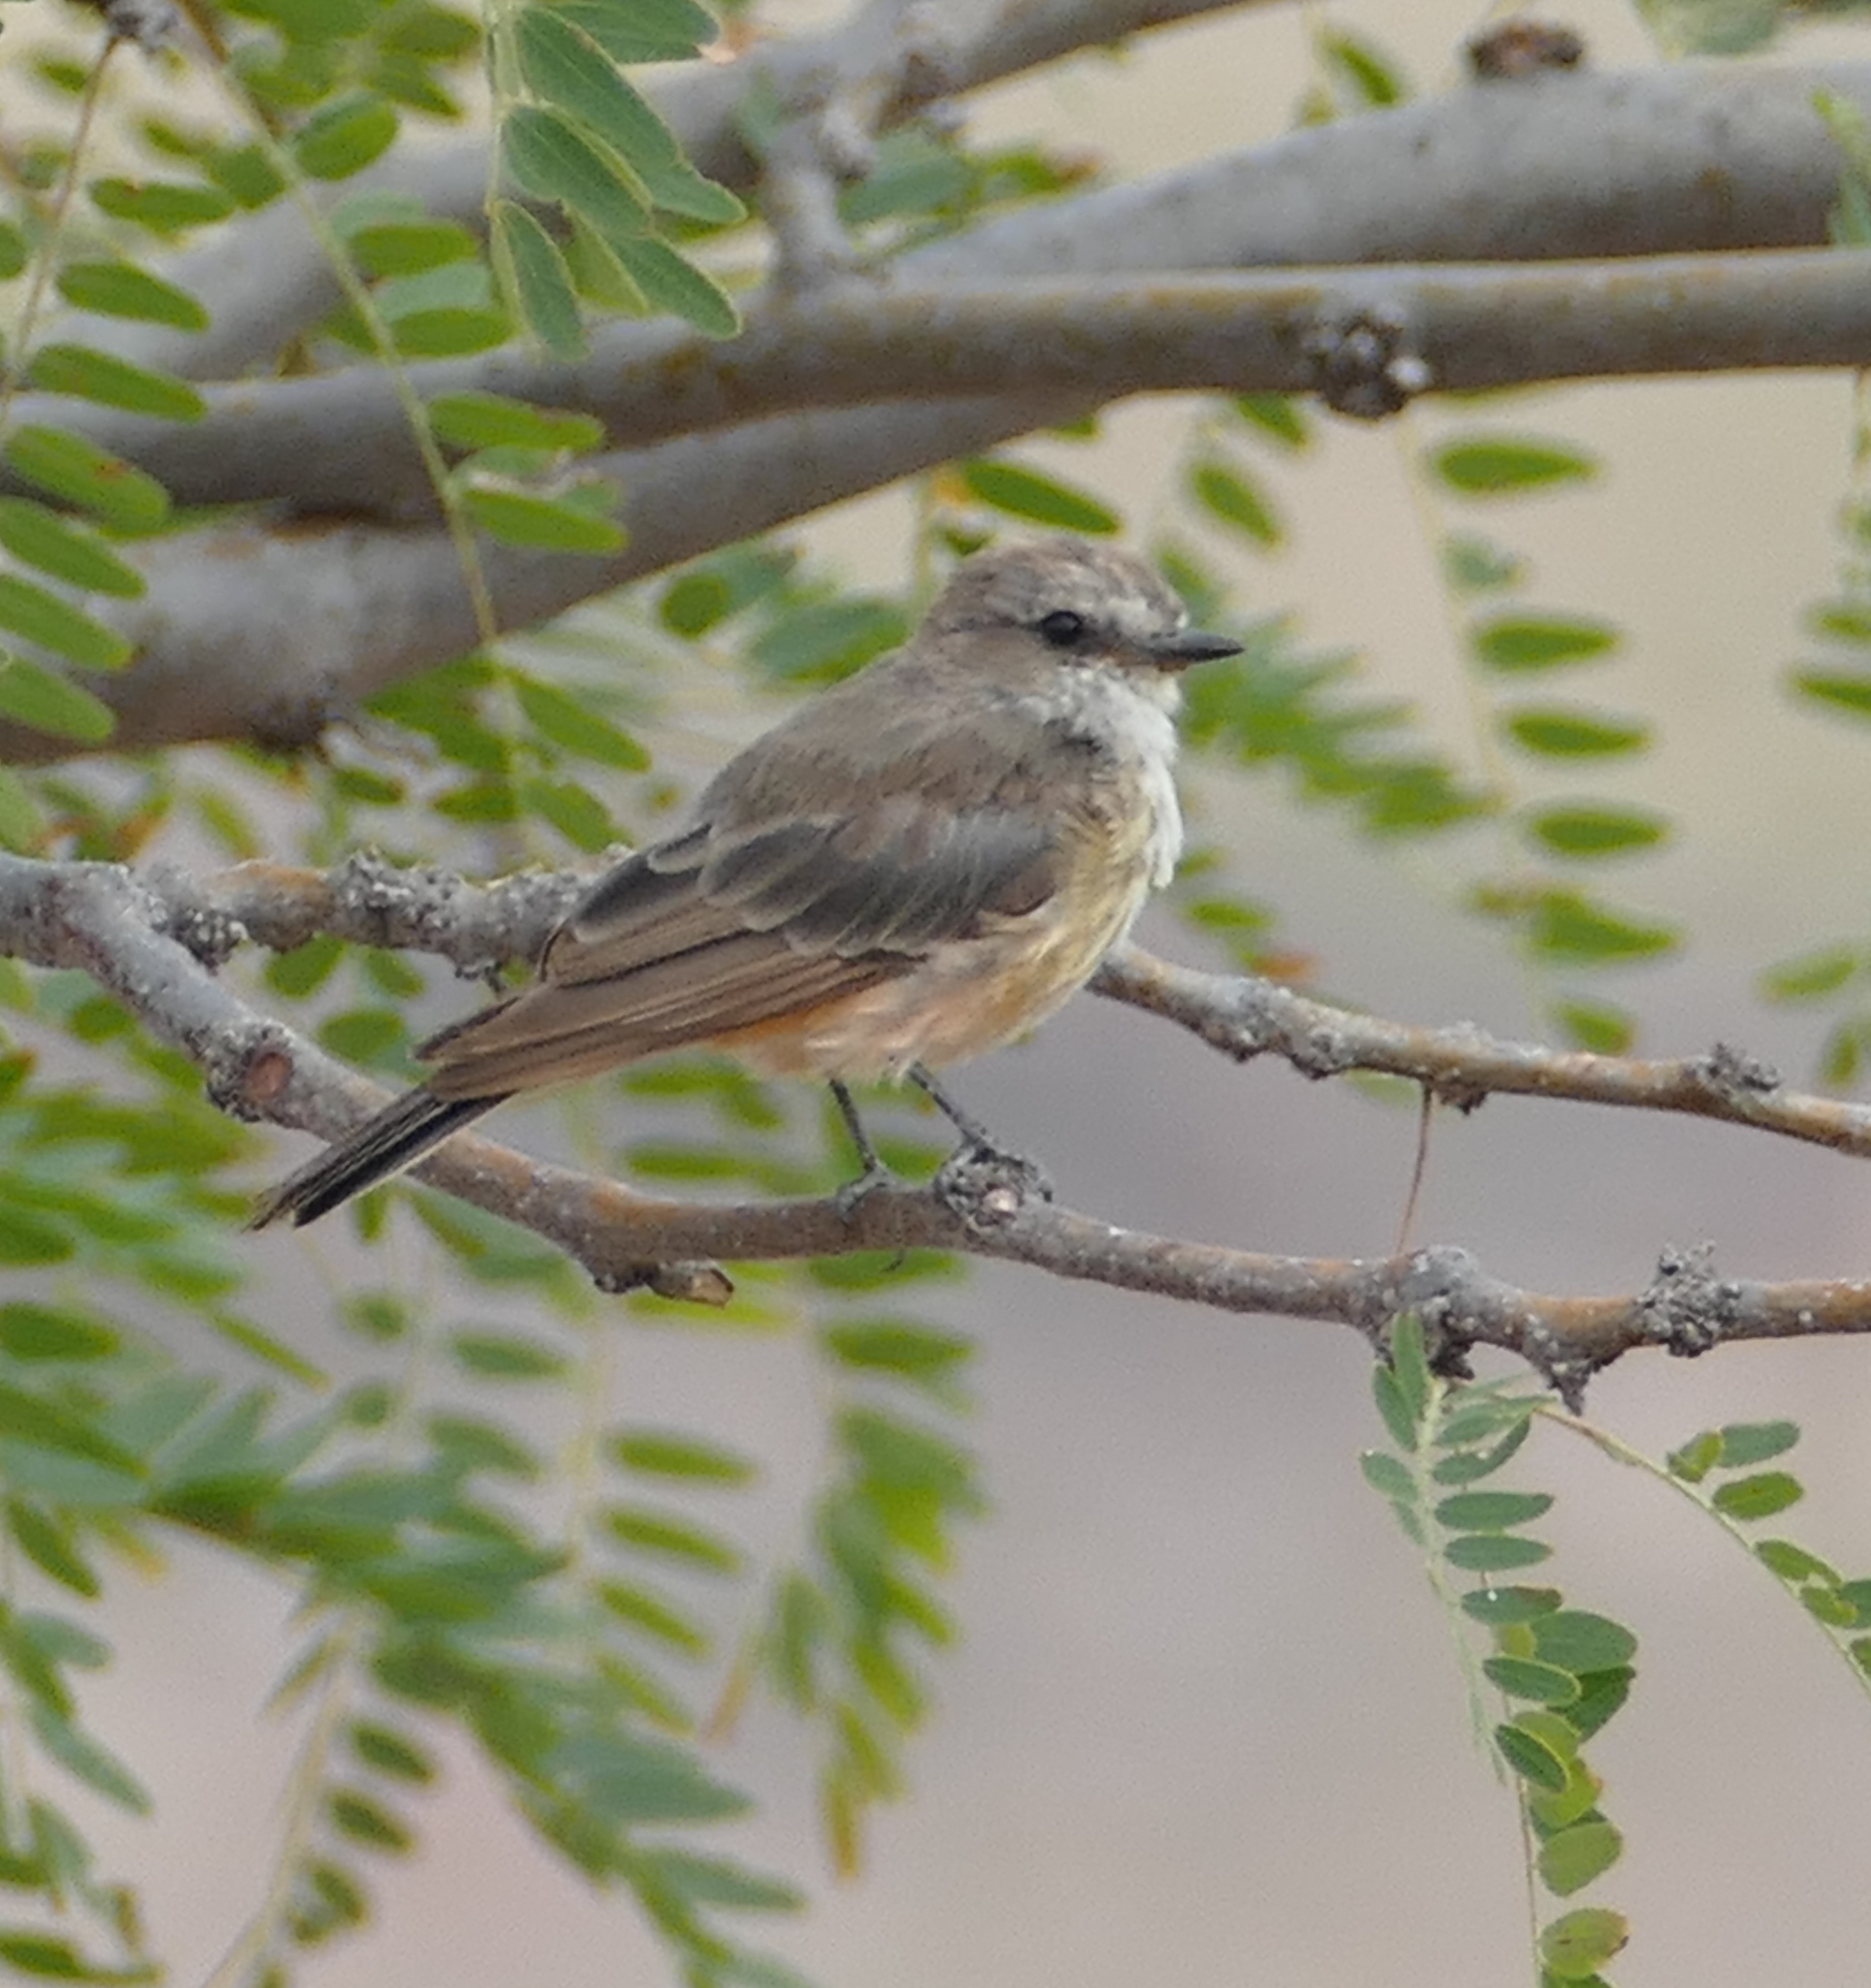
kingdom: Animalia
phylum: Chordata
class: Aves
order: Passeriformes
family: Tyrannidae
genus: Pyrocephalus
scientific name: Pyrocephalus rubinus
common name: Vermilion flycatcher
